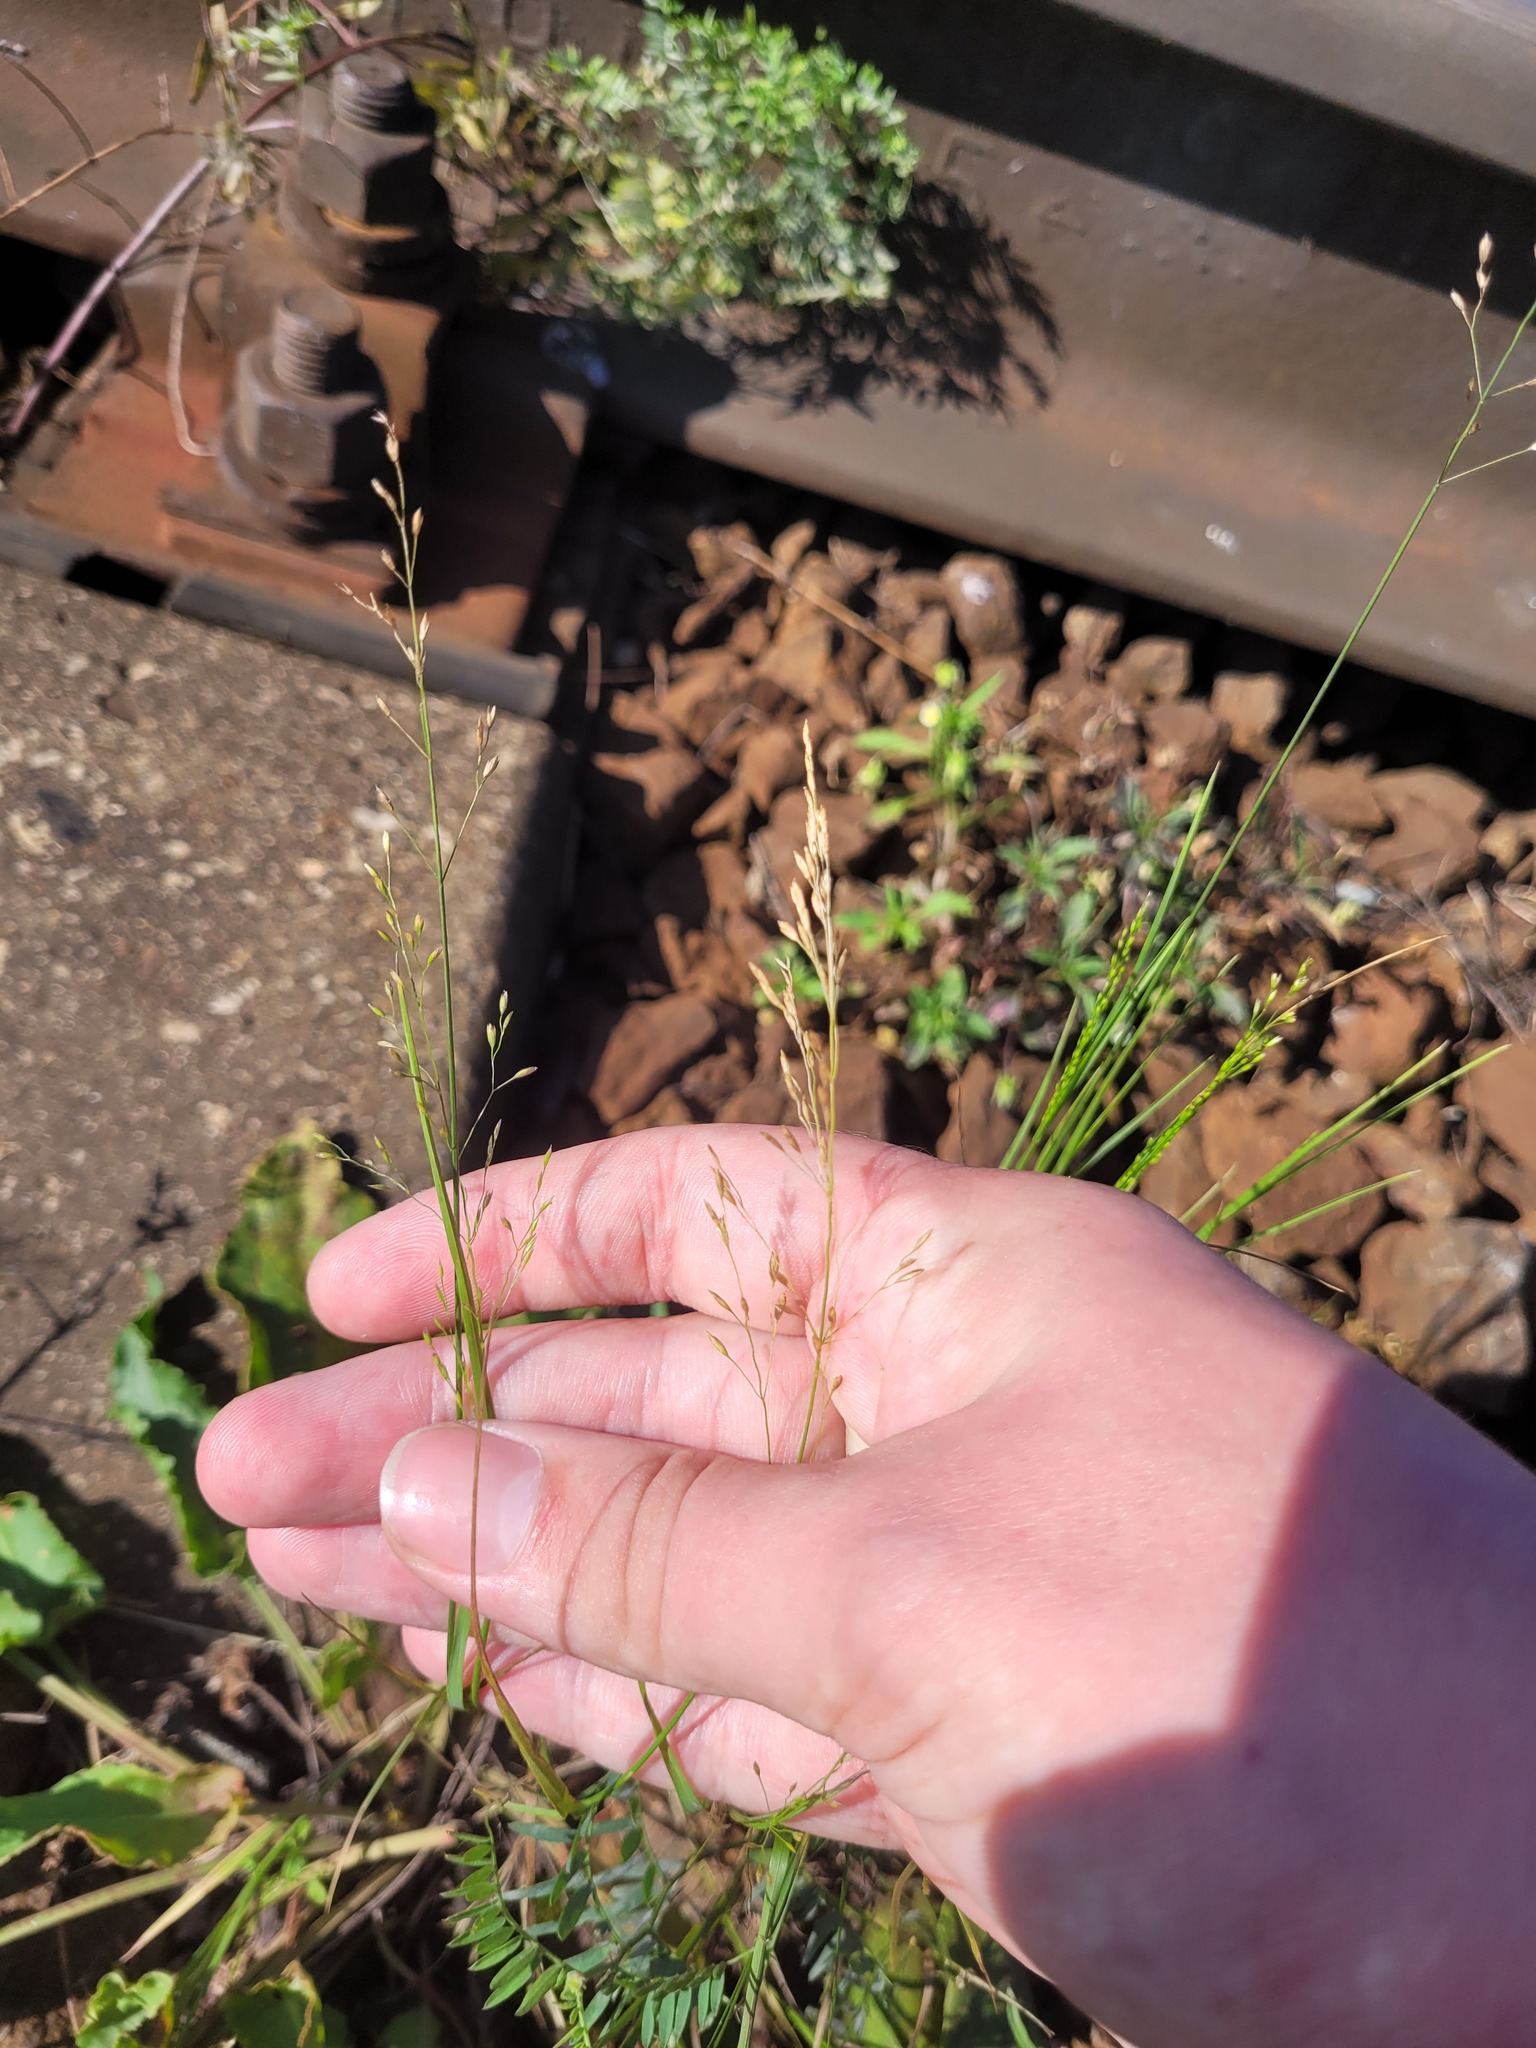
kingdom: Plantae
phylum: Tracheophyta
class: Liliopsida
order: Poales
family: Poaceae
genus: Poa
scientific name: Poa palustris
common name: Swamp meadow-grass
